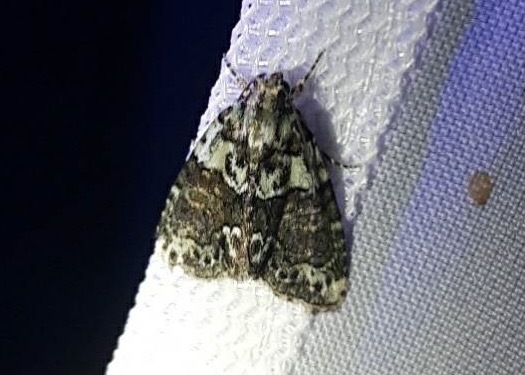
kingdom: Animalia
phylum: Arthropoda
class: Insecta
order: Lepidoptera
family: Noctuidae
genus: Cryphia
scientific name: Cryphia algae
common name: Tree-lichen beauty
